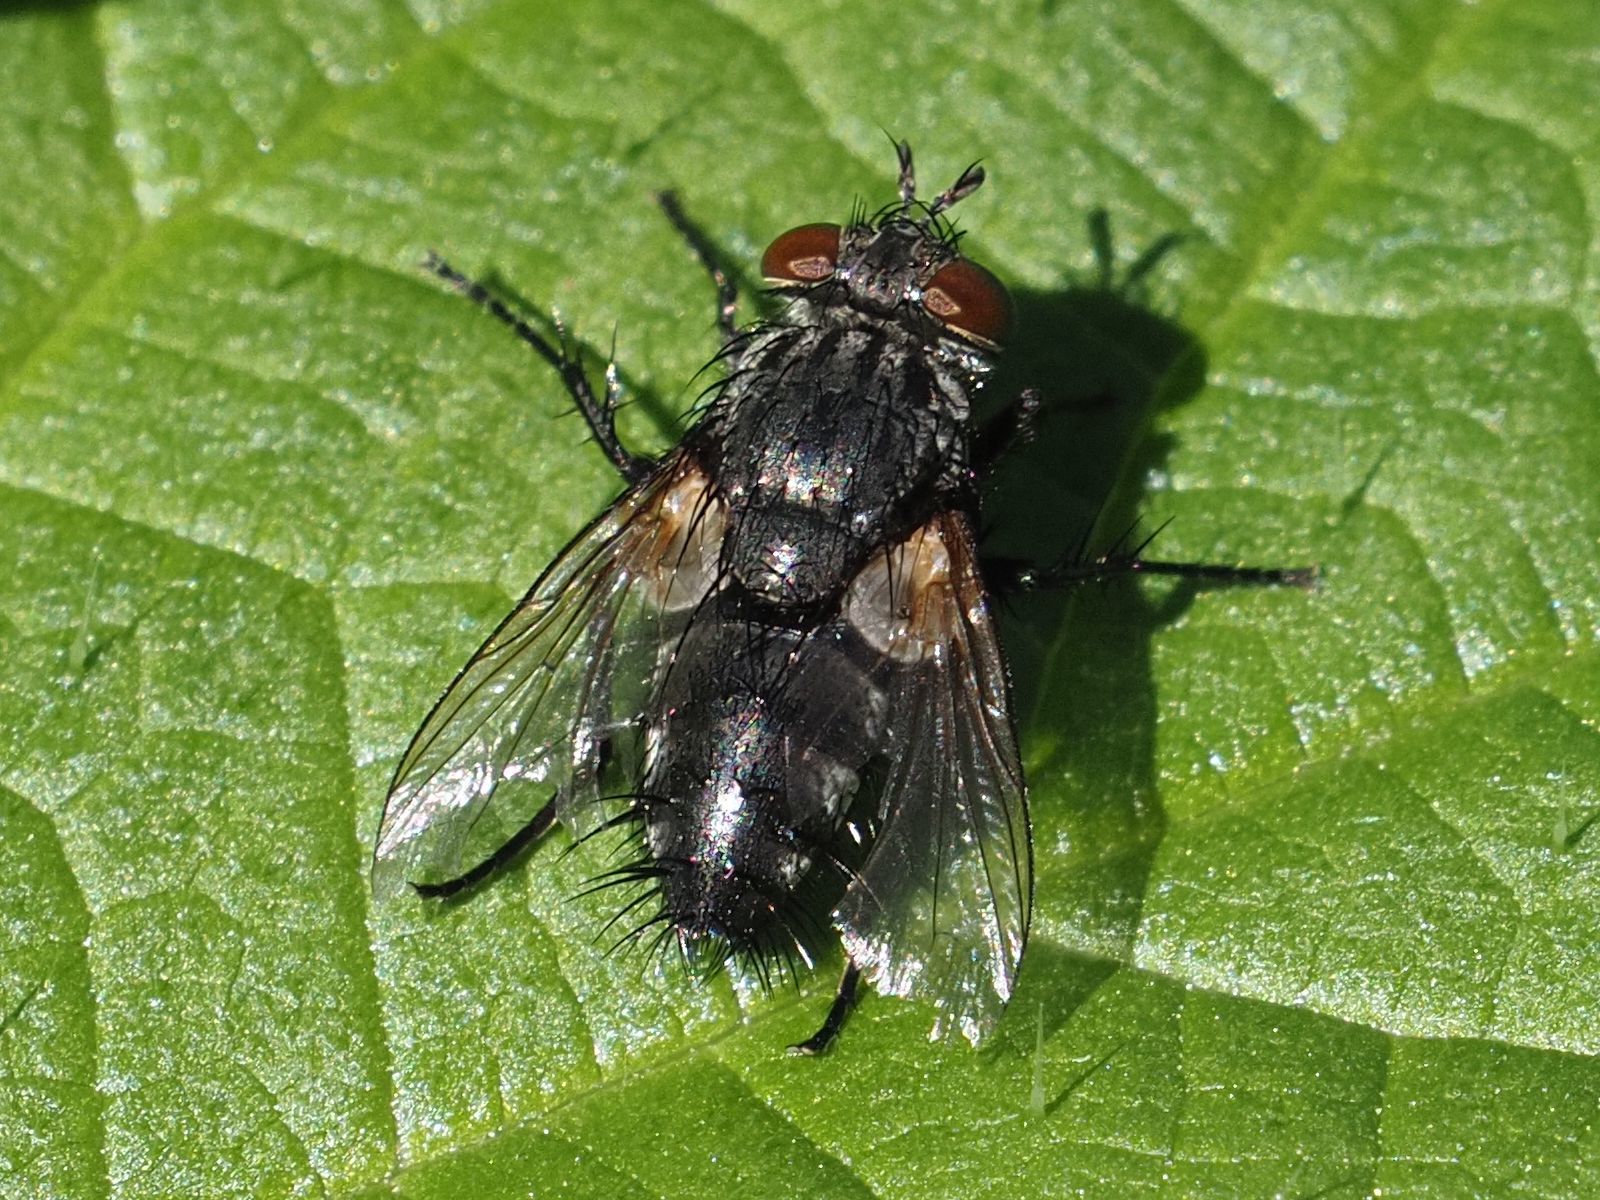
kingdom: Animalia
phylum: Arthropoda
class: Insecta
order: Diptera
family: Tachinidae
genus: Voria
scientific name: Voria ruralis
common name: Parasitic fly
